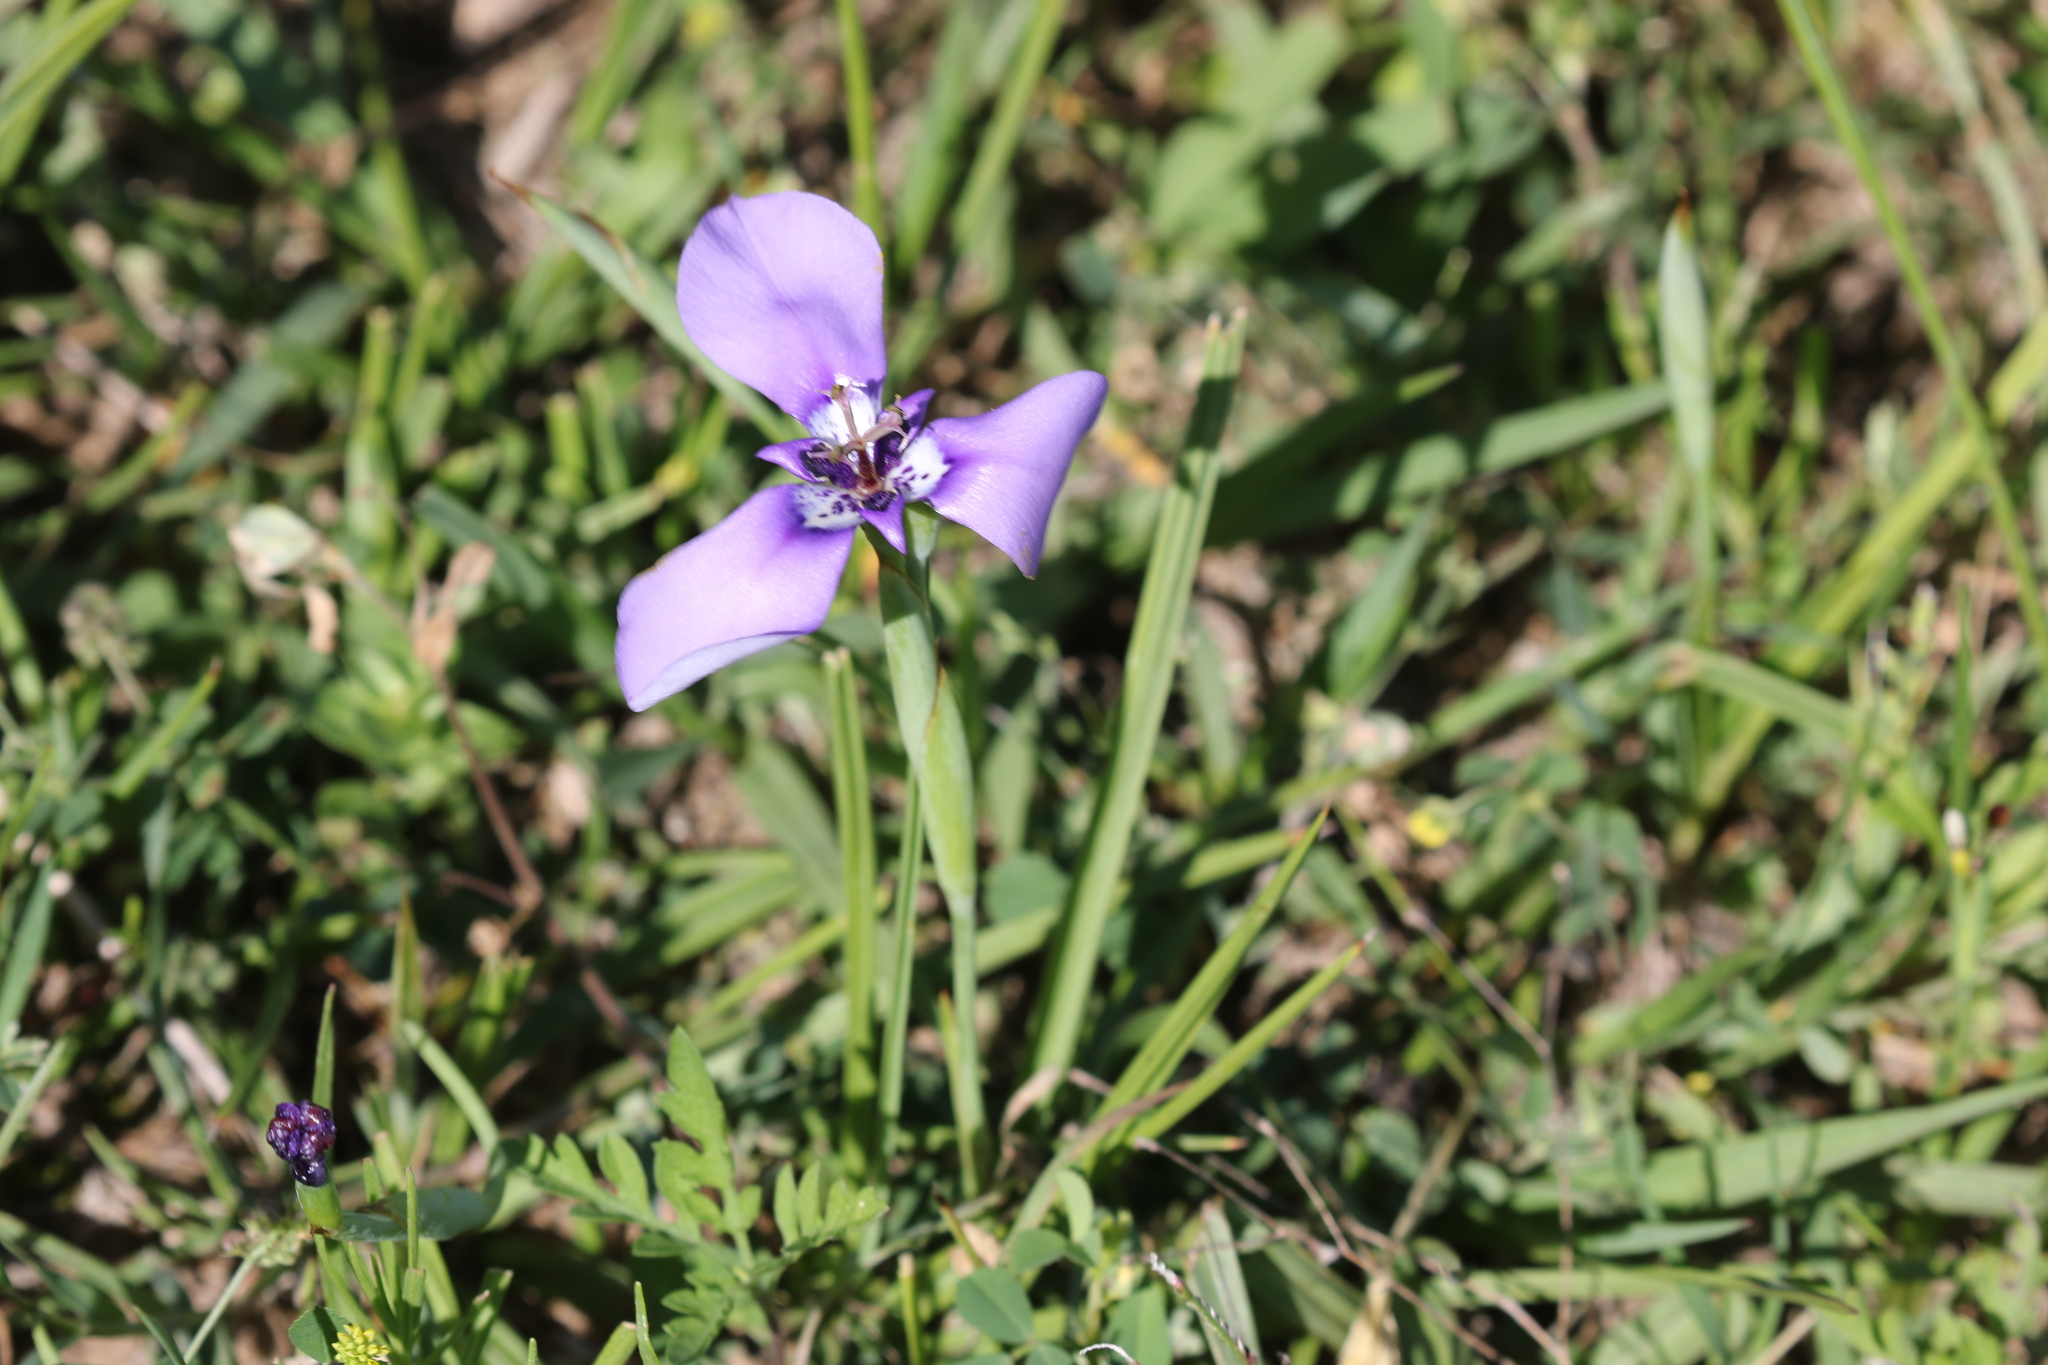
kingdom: Plantae
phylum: Tracheophyta
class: Liliopsida
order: Asparagales
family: Iridaceae
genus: Herbertia
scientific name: Herbertia lahue
